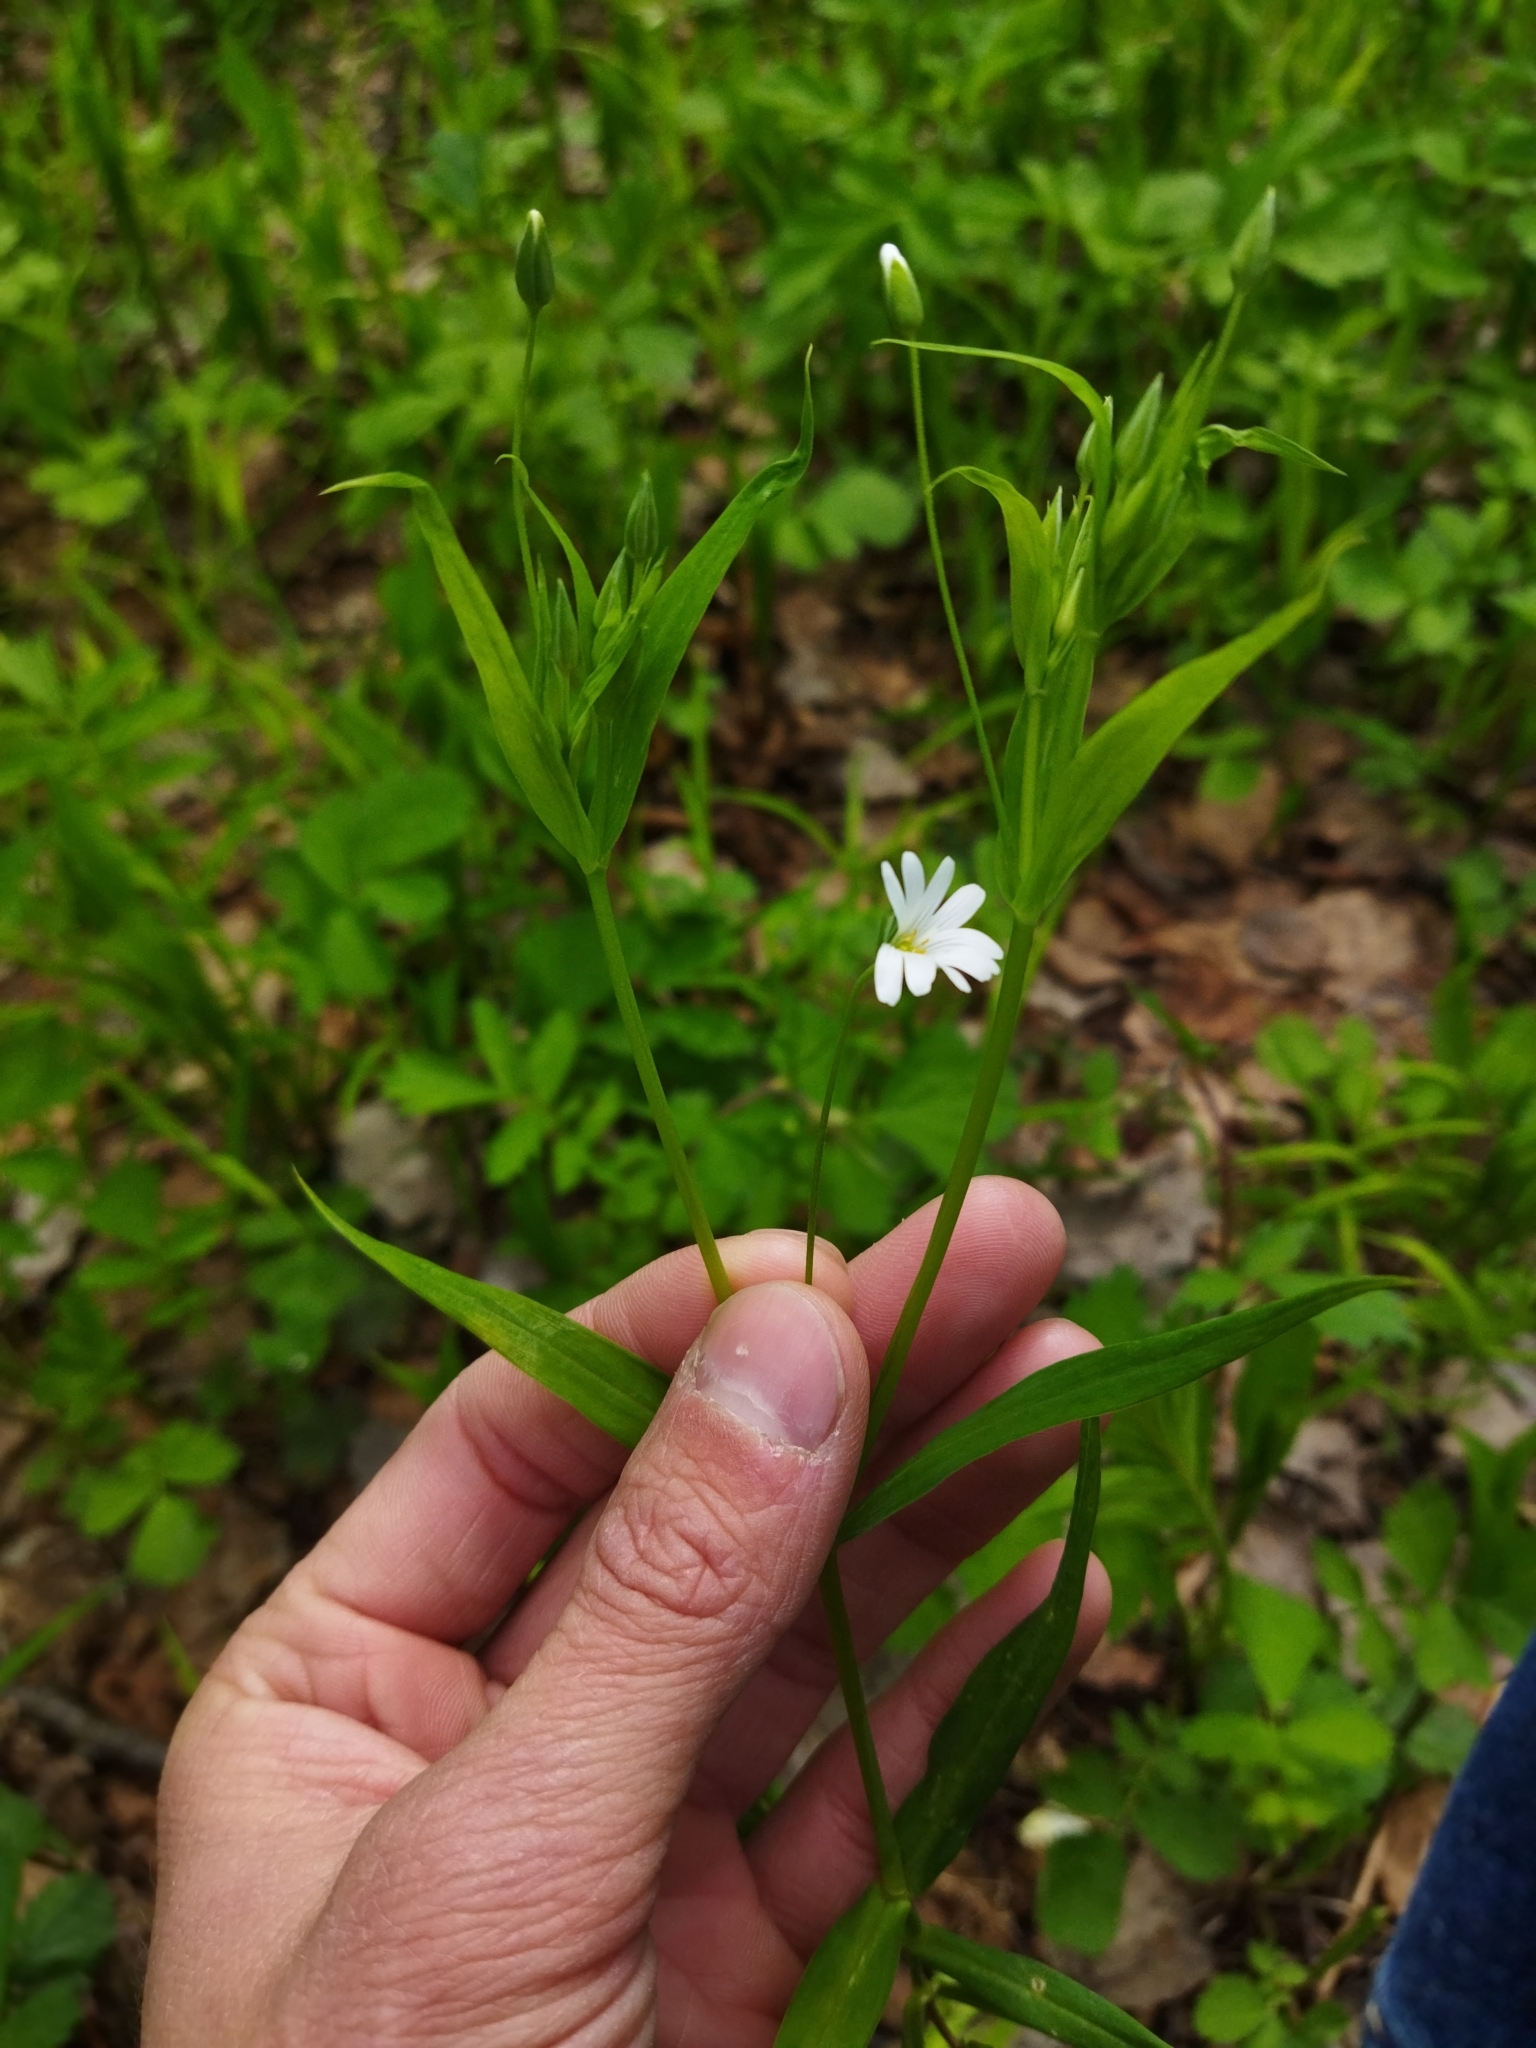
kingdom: Plantae
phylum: Tracheophyta
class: Magnoliopsida
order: Caryophyllales
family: Caryophyllaceae
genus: Rabelera
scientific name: Rabelera holostea
